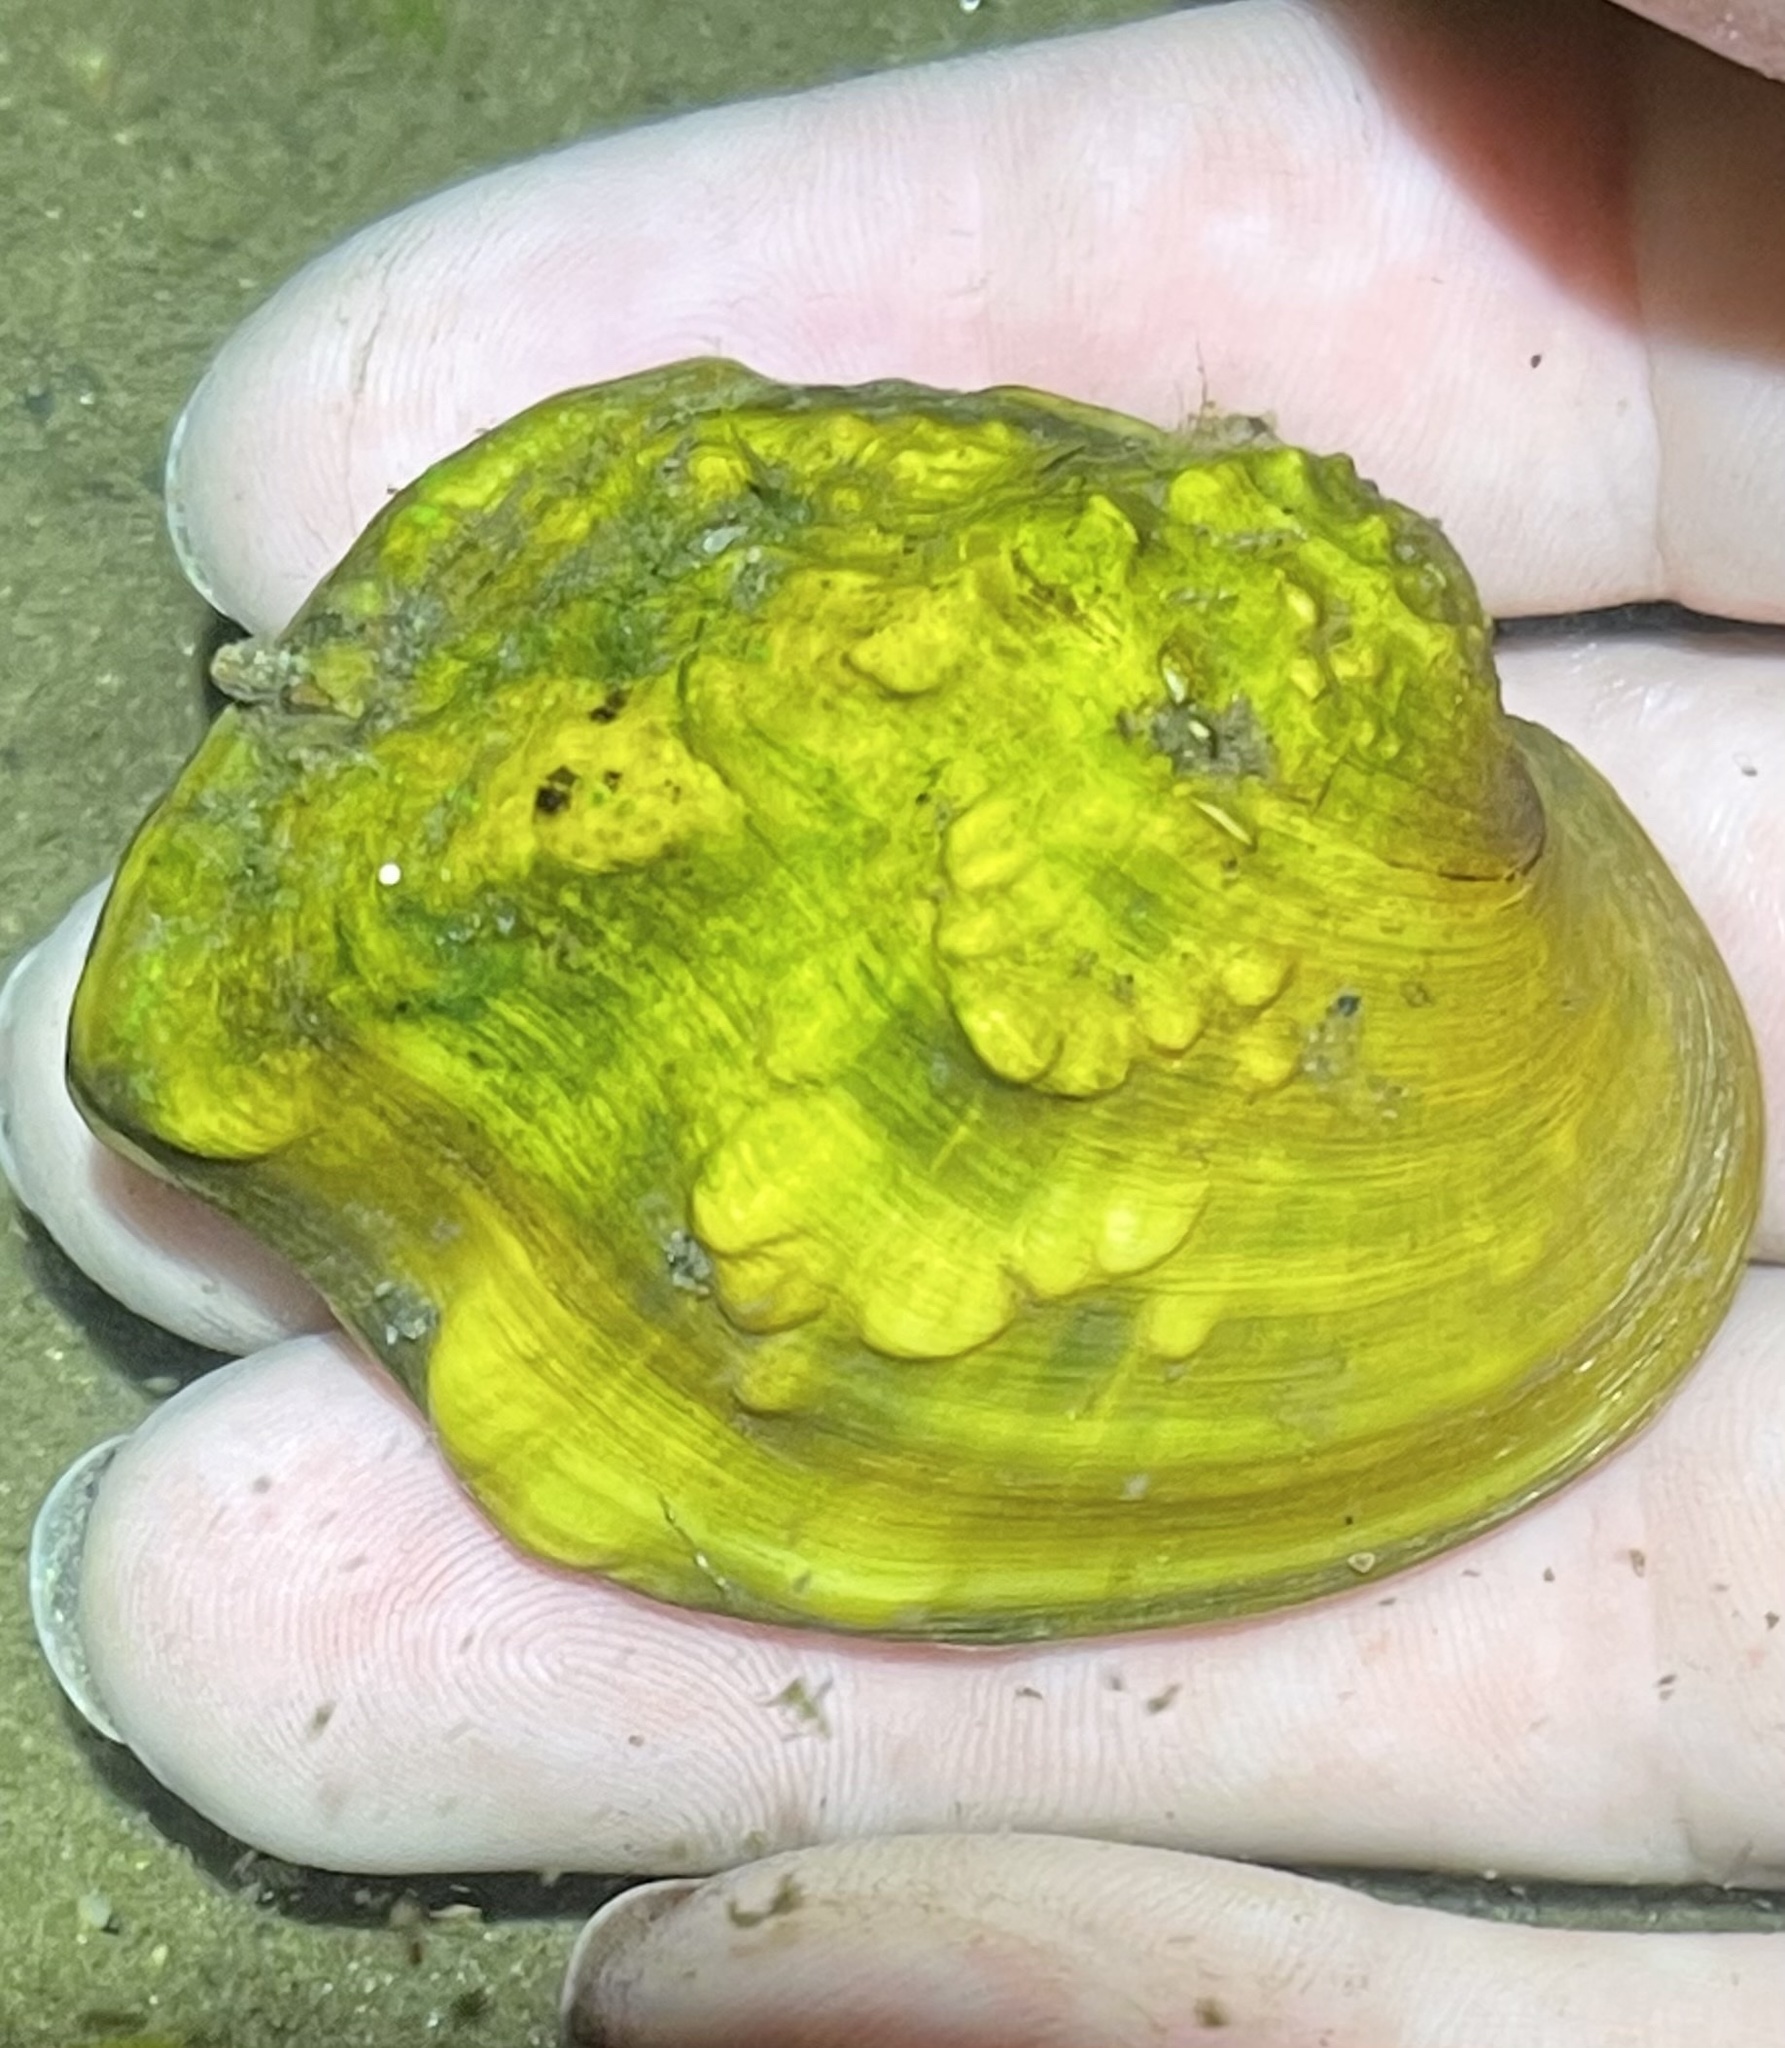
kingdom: Animalia
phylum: Mollusca
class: Bivalvia
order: Unionida
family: Unionidae
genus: Quadrula
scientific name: Quadrula quadrula
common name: Mapleleaf
